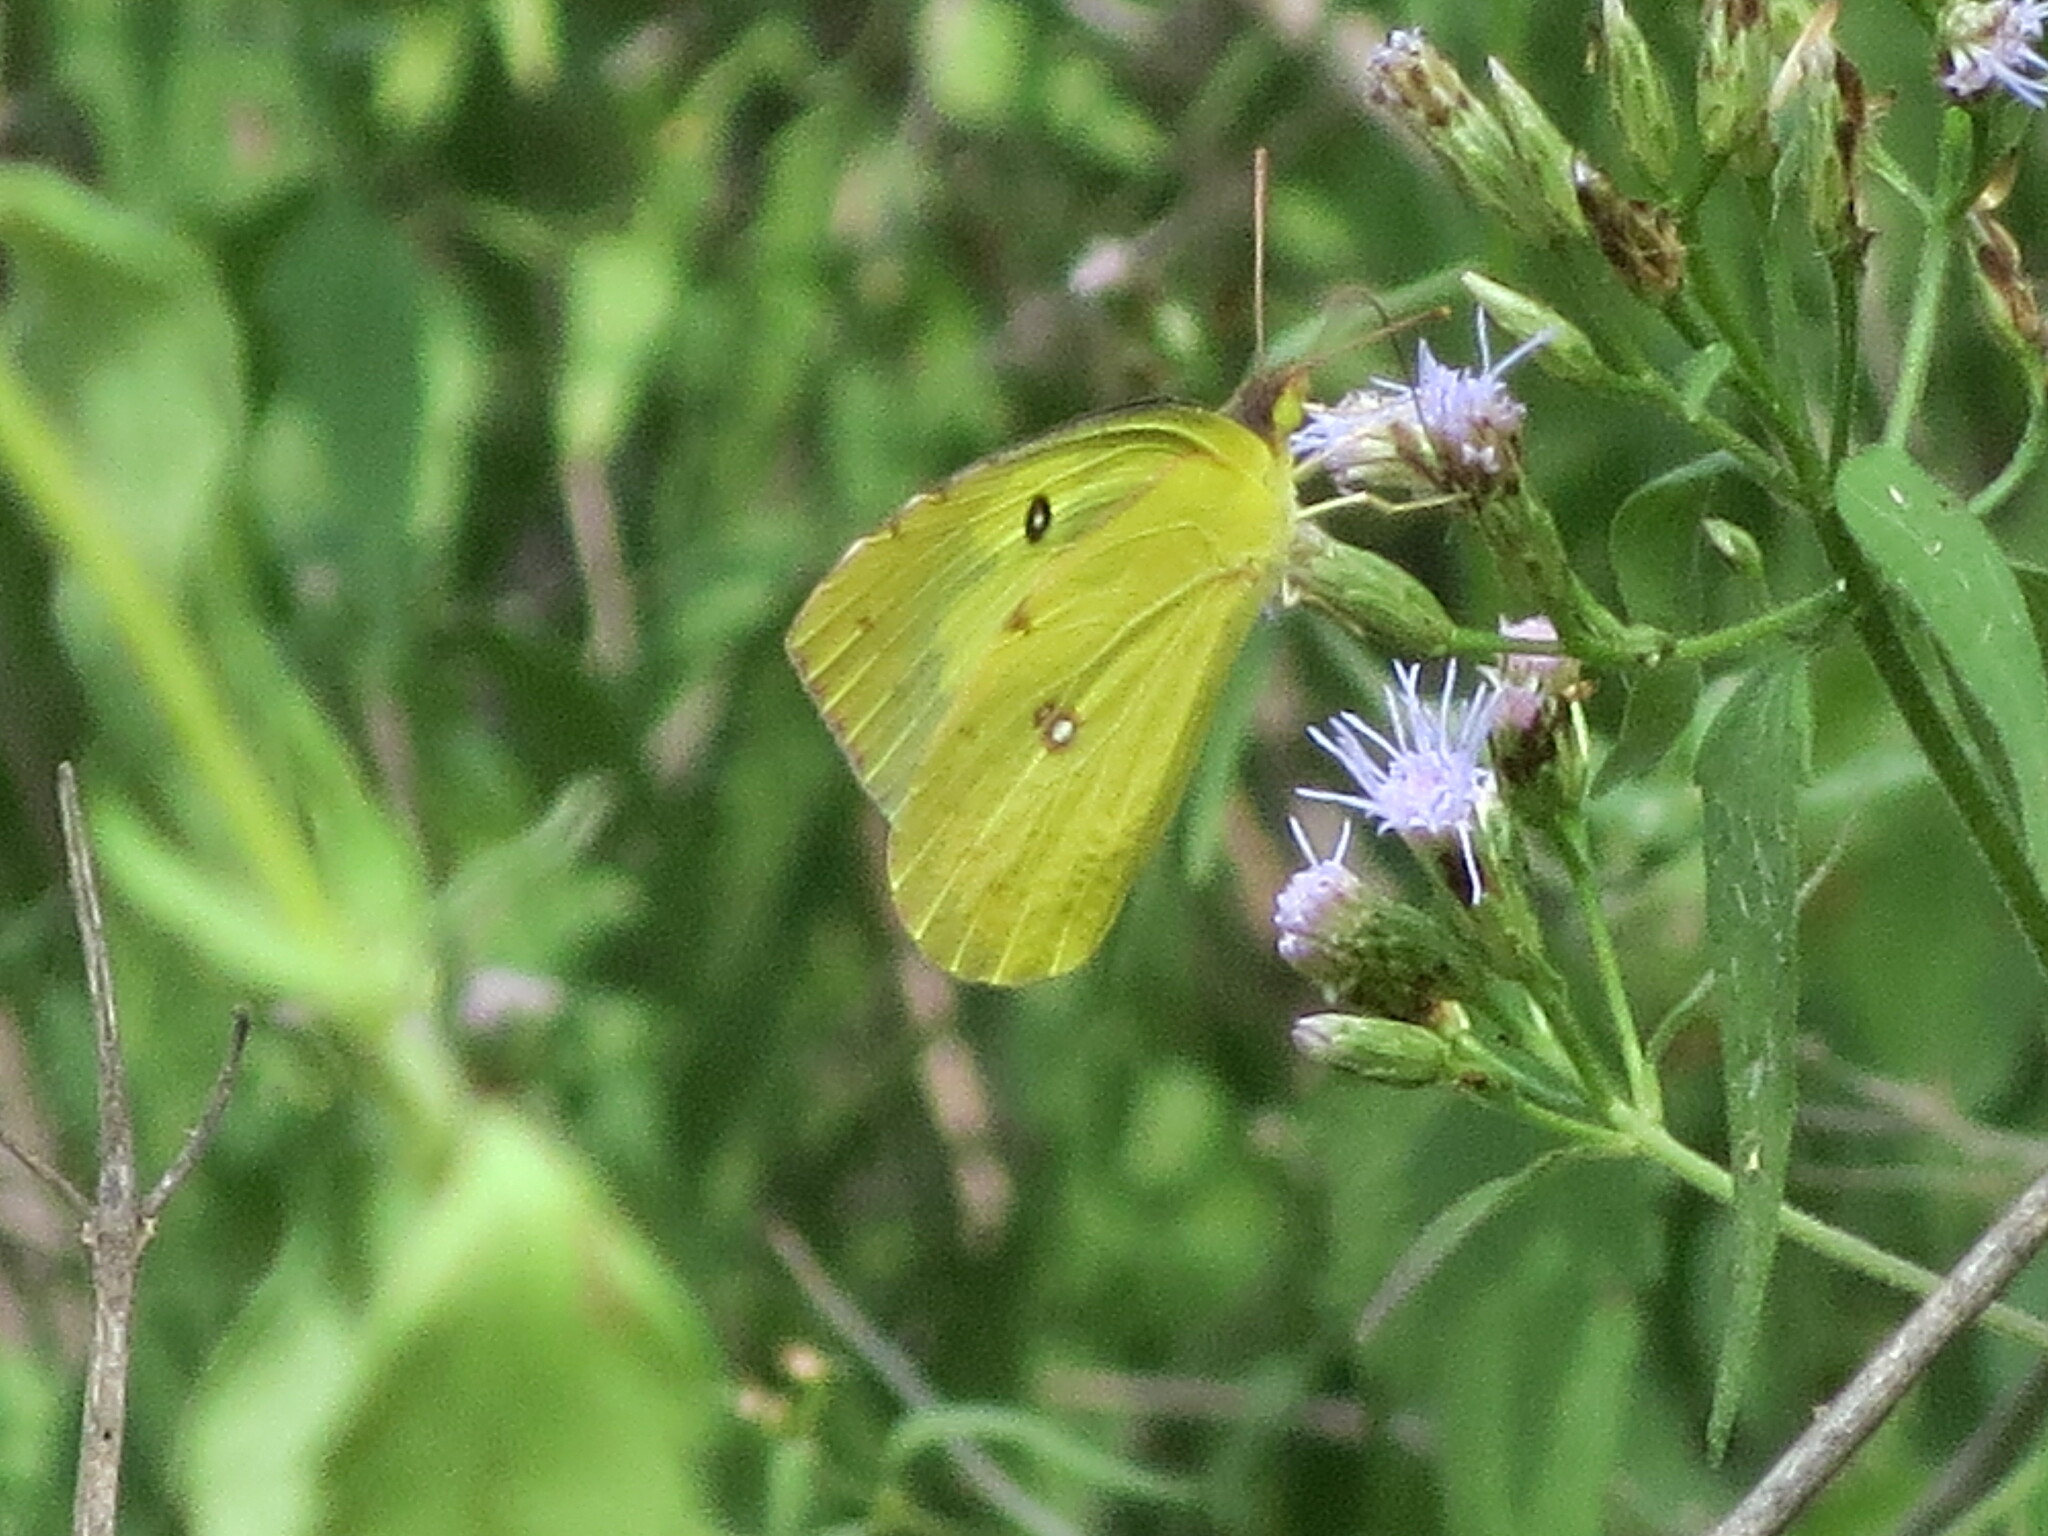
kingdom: Animalia
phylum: Arthropoda
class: Insecta
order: Lepidoptera
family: Pieridae
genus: Zerene
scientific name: Zerene cesonia
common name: Southern dogface
